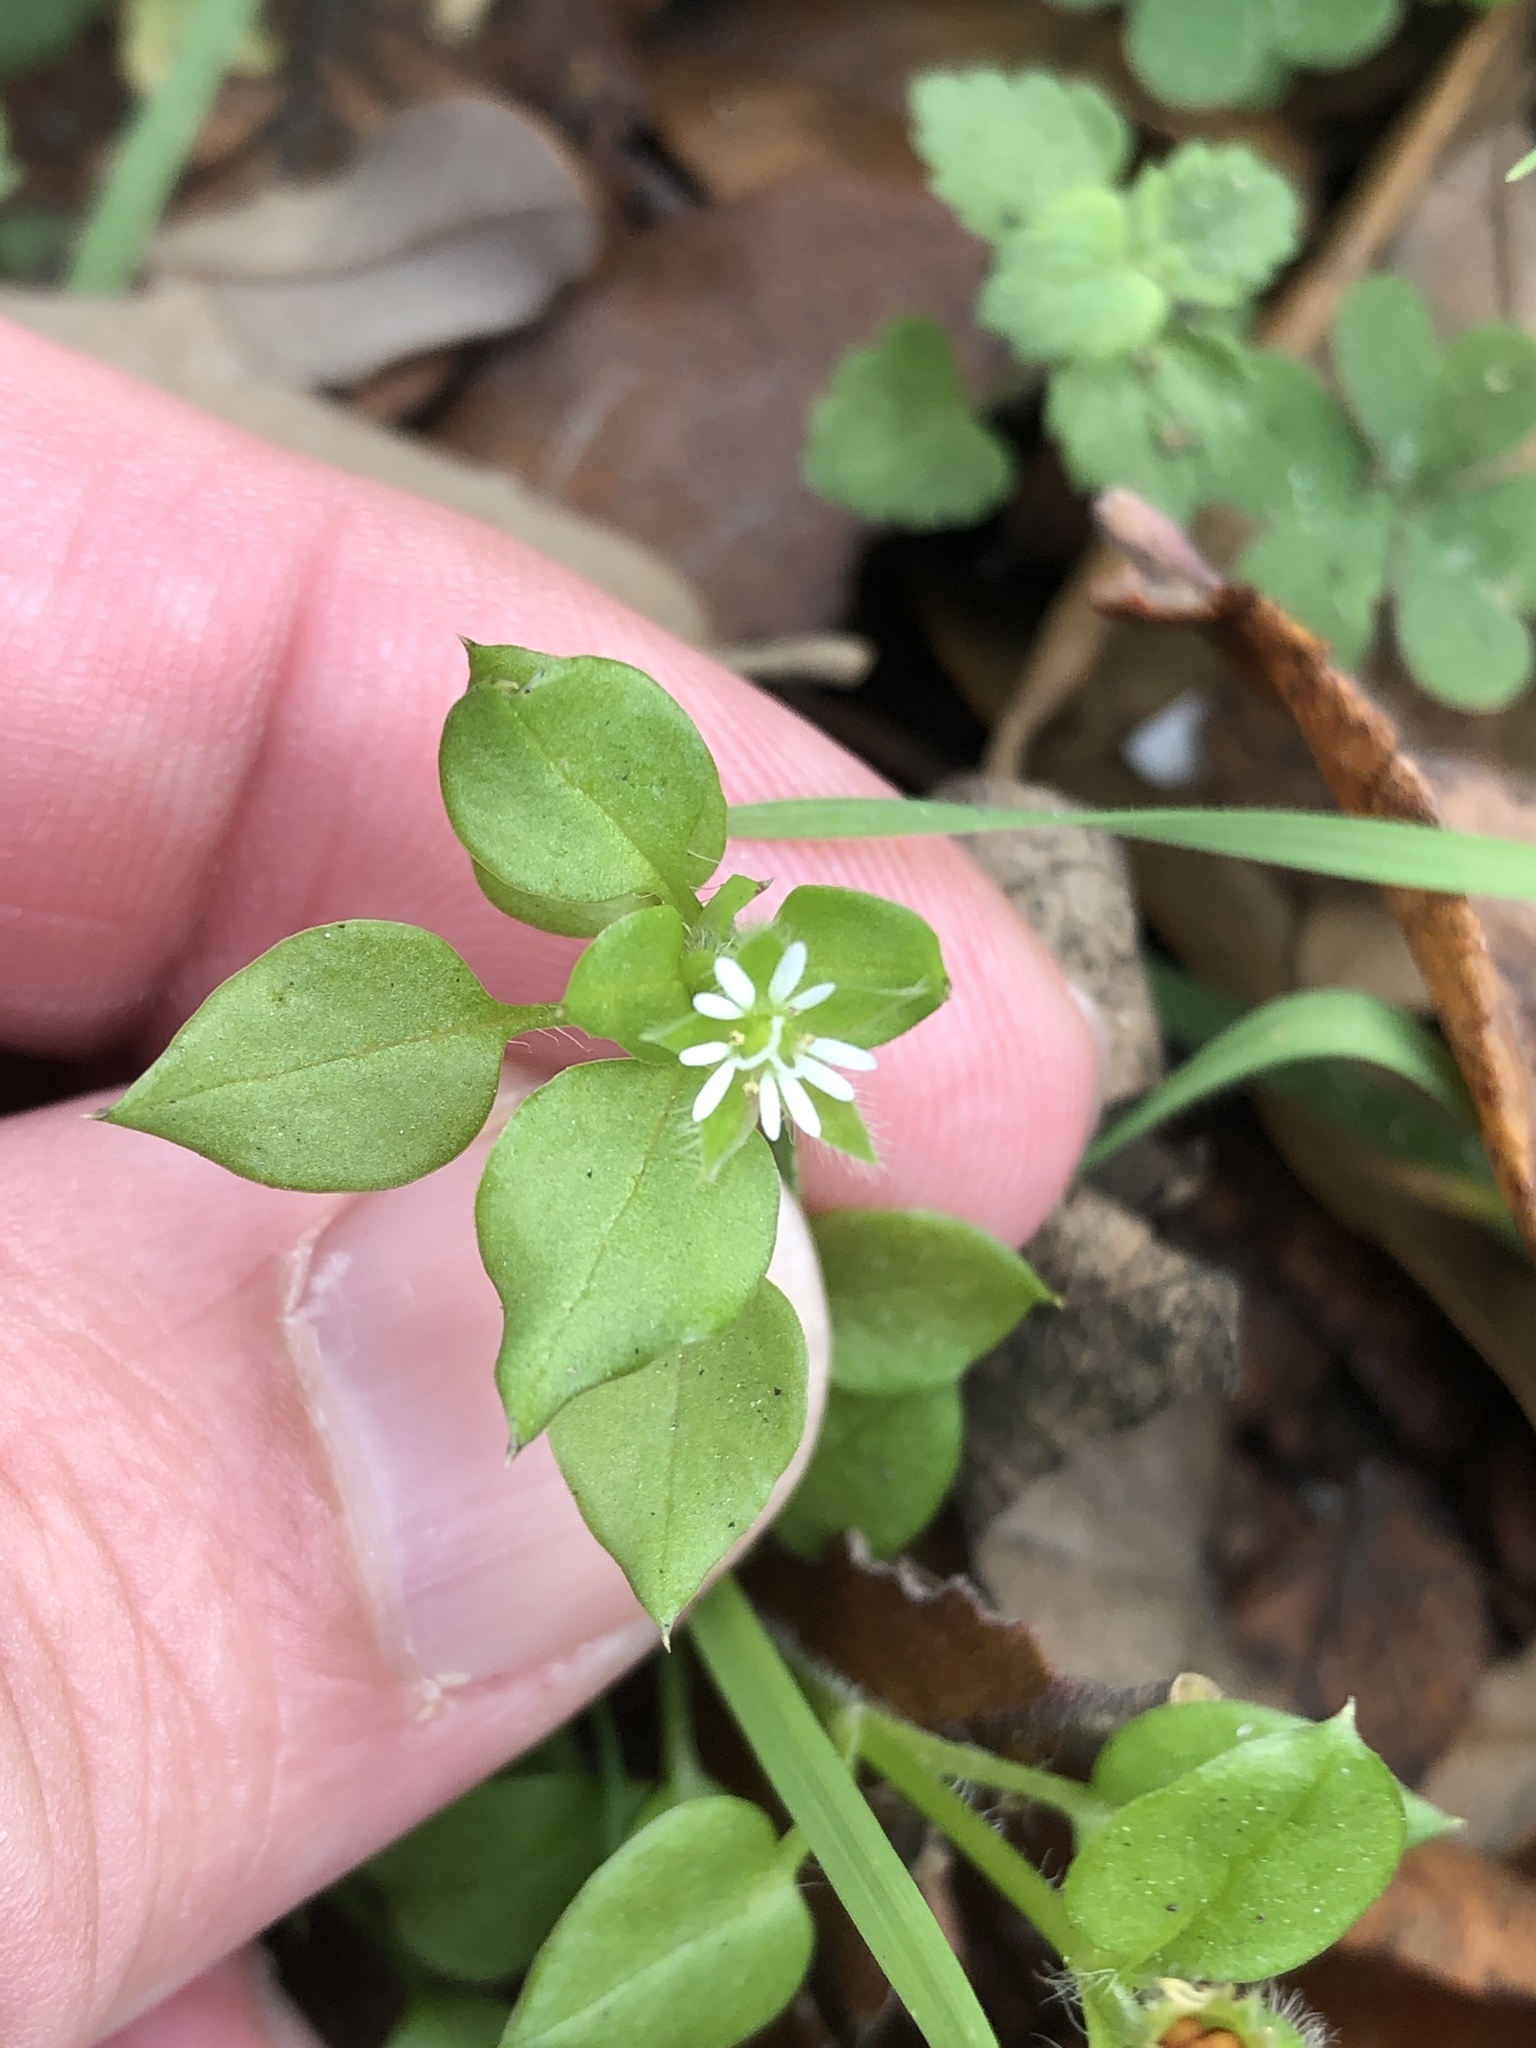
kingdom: Plantae
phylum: Tracheophyta
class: Magnoliopsida
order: Caryophyllales
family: Caryophyllaceae
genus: Stellaria
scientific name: Stellaria media
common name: Common chickweed
